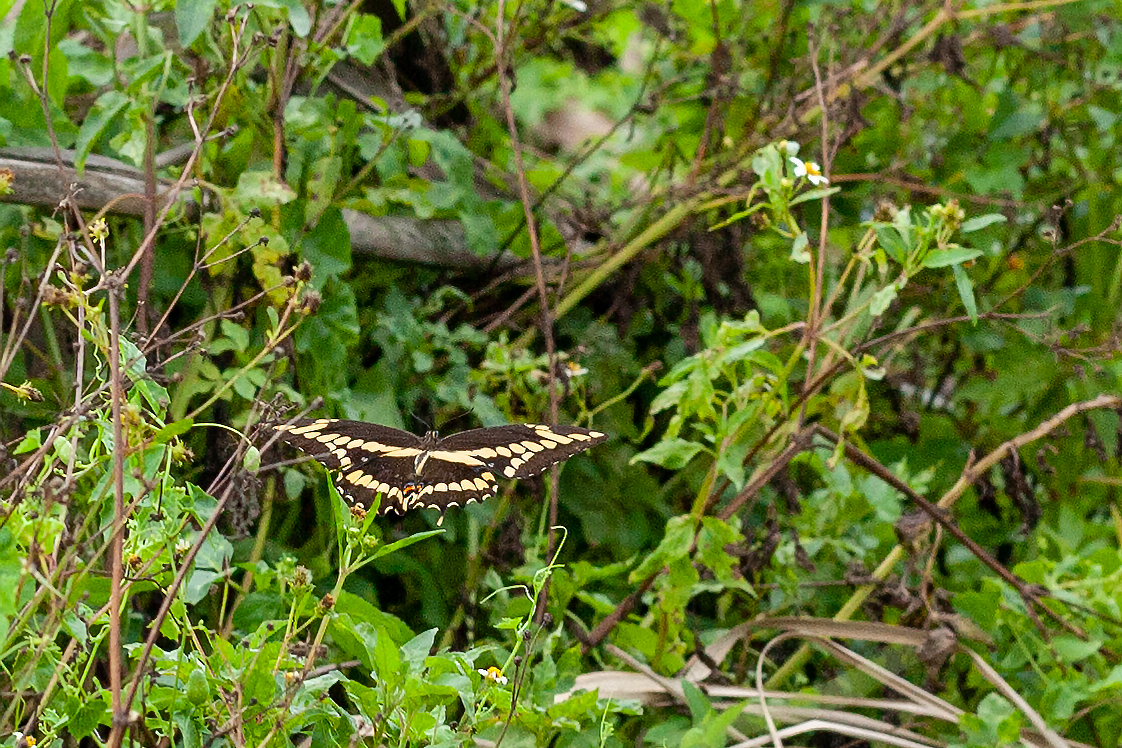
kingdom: Animalia
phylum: Arthropoda
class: Insecta
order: Lepidoptera
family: Papilionidae
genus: Papilio
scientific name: Papilio cresphontes
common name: Giant swallowtail
